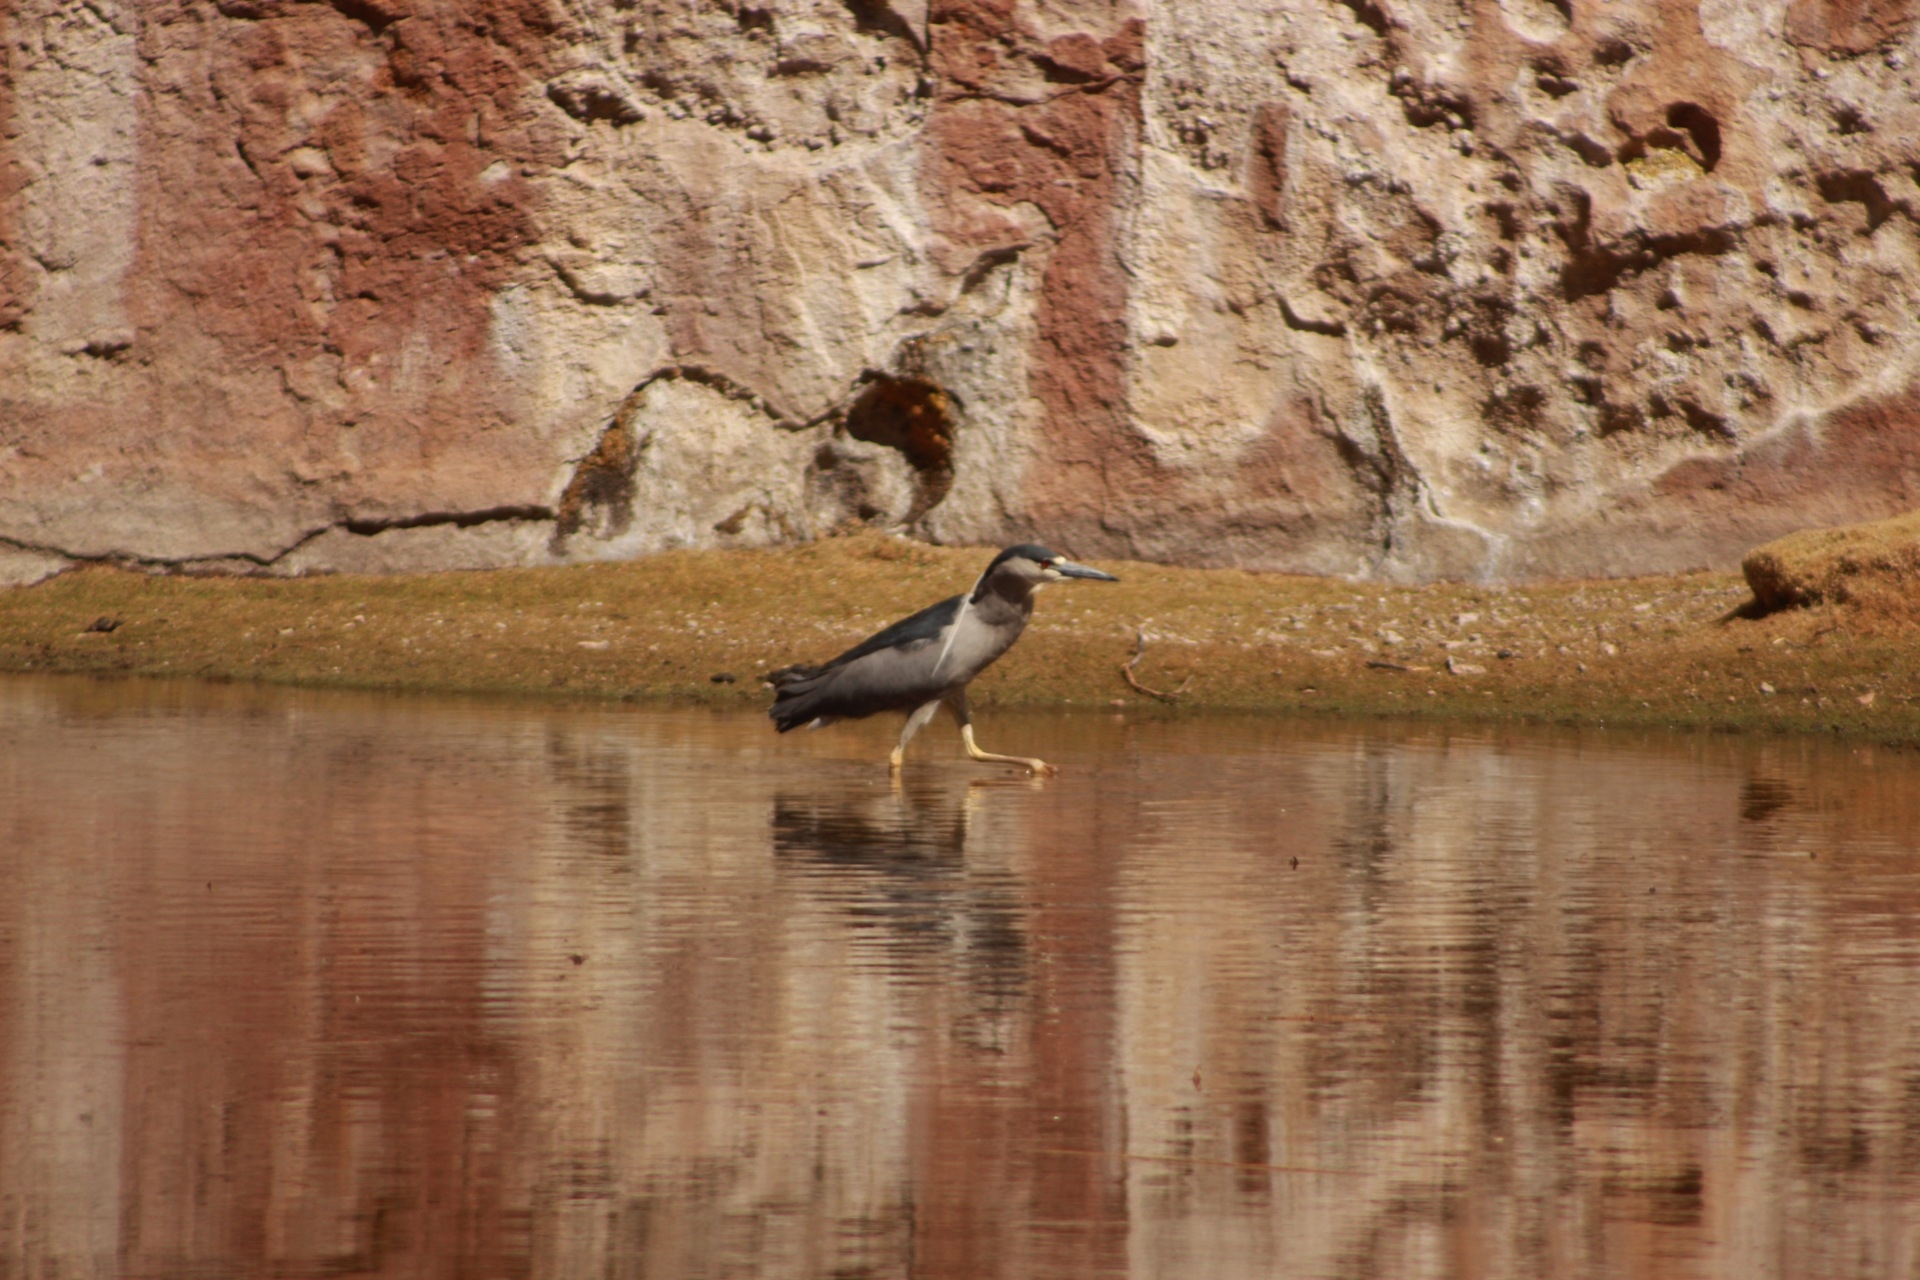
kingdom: Animalia
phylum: Chordata
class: Aves
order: Pelecaniformes
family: Ardeidae
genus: Nycticorax
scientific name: Nycticorax nycticorax
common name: Black-crowned night heron
